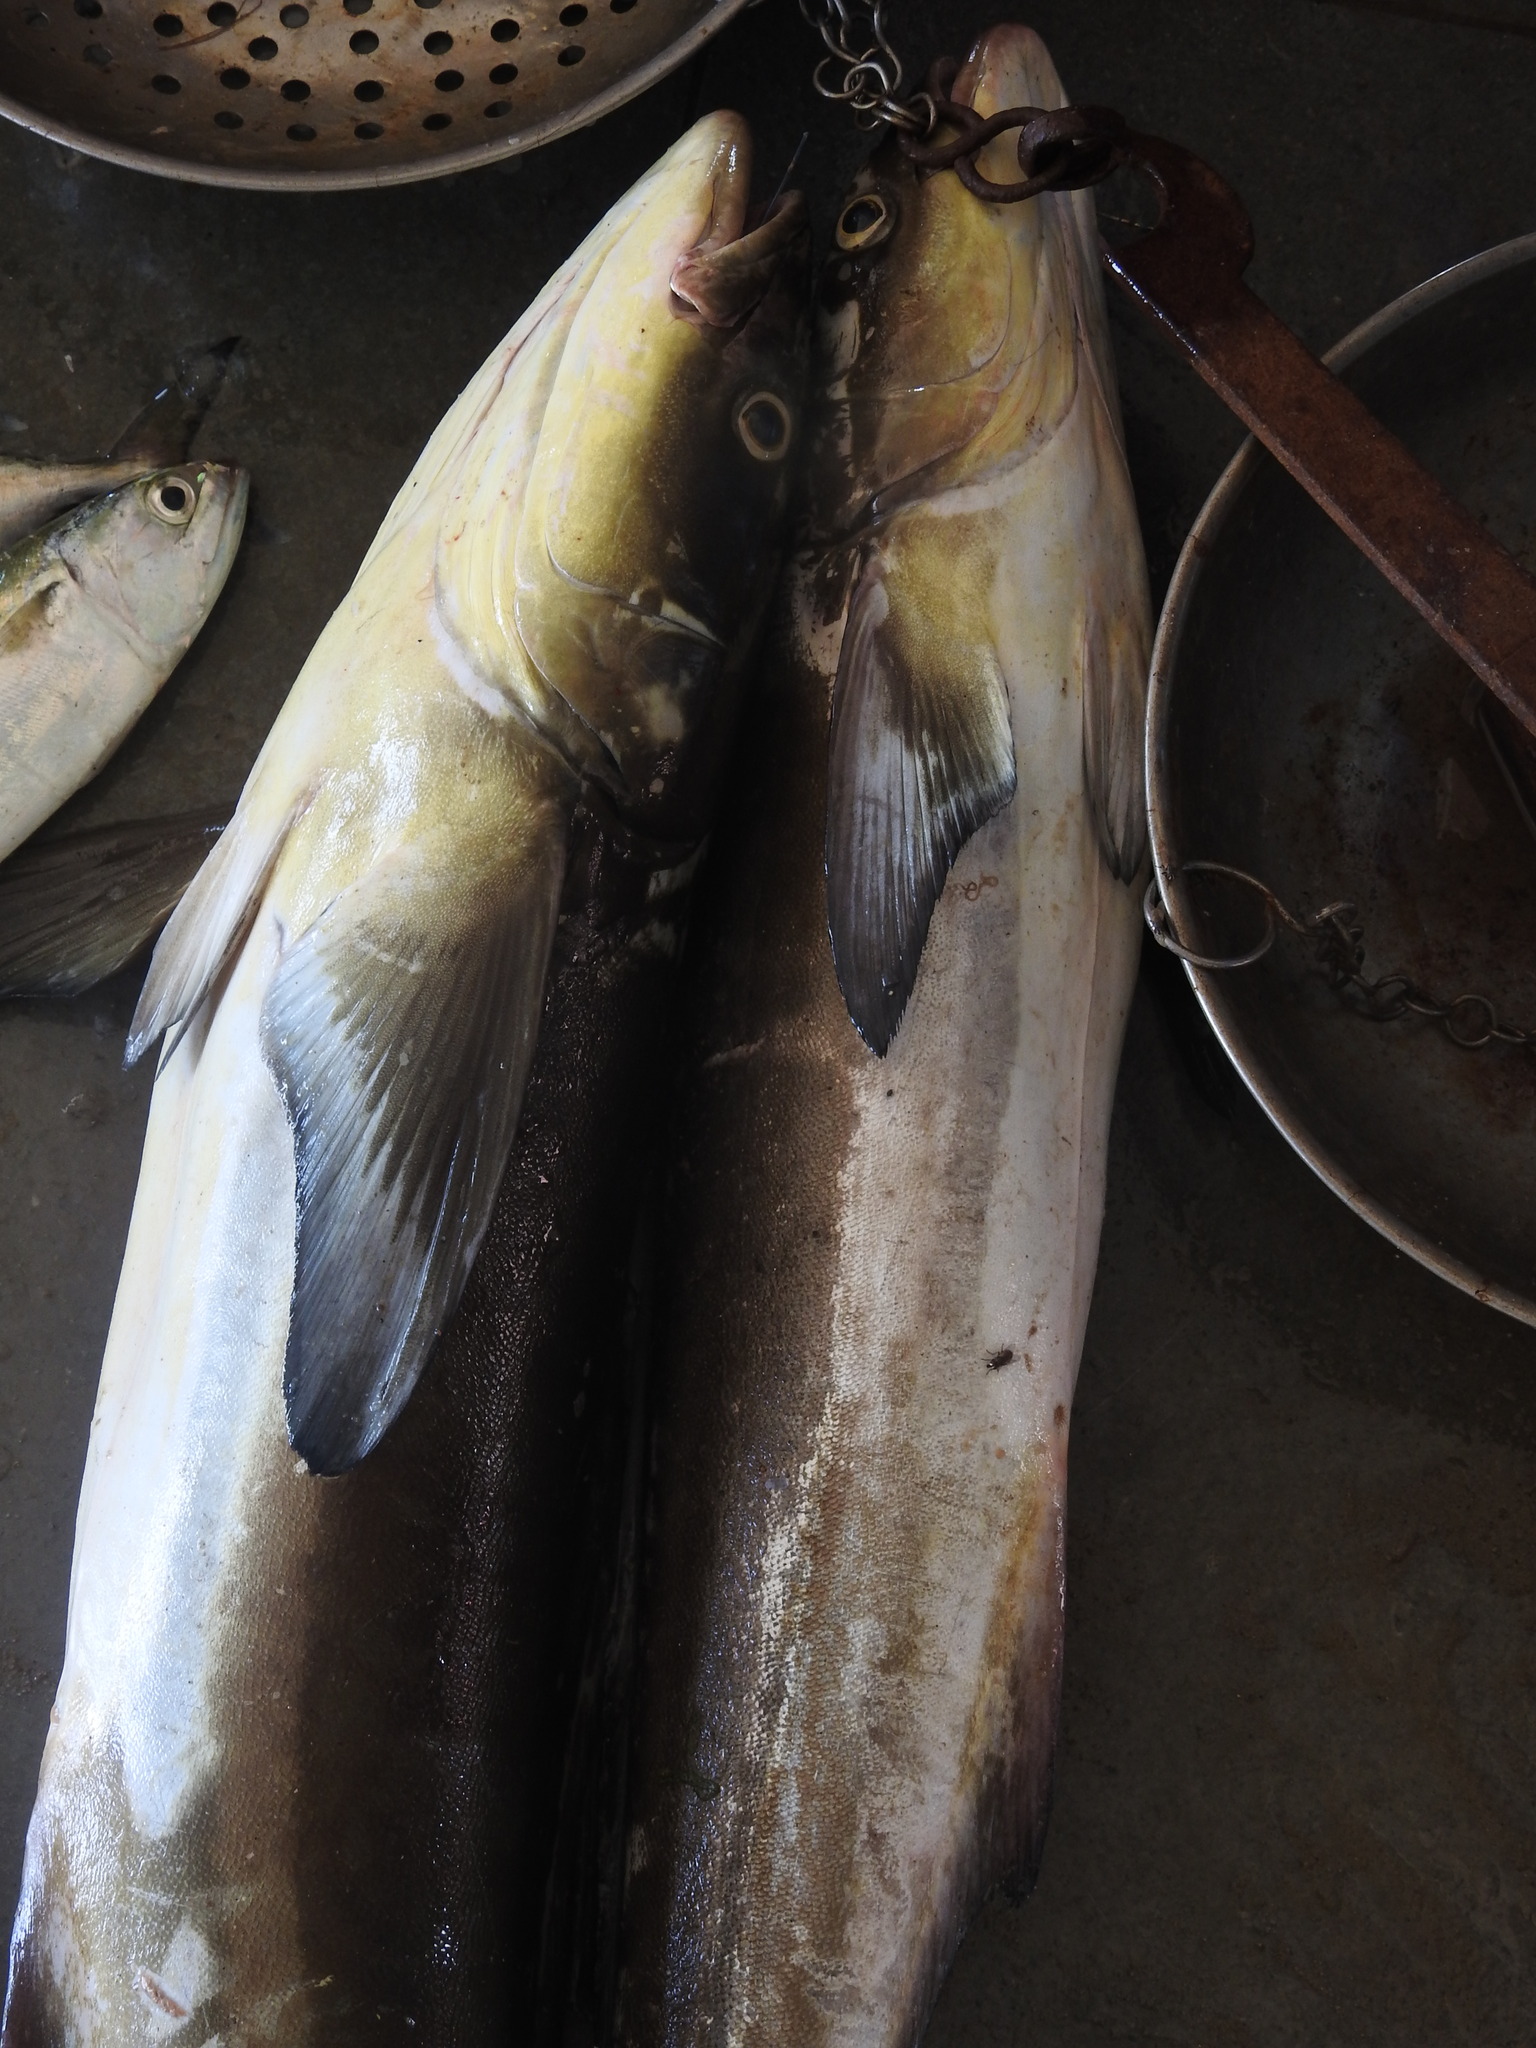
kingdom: Animalia
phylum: Chordata
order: Perciformes
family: Rachycentridae
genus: Rachycentron
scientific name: Rachycentron canadum
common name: Cobia
